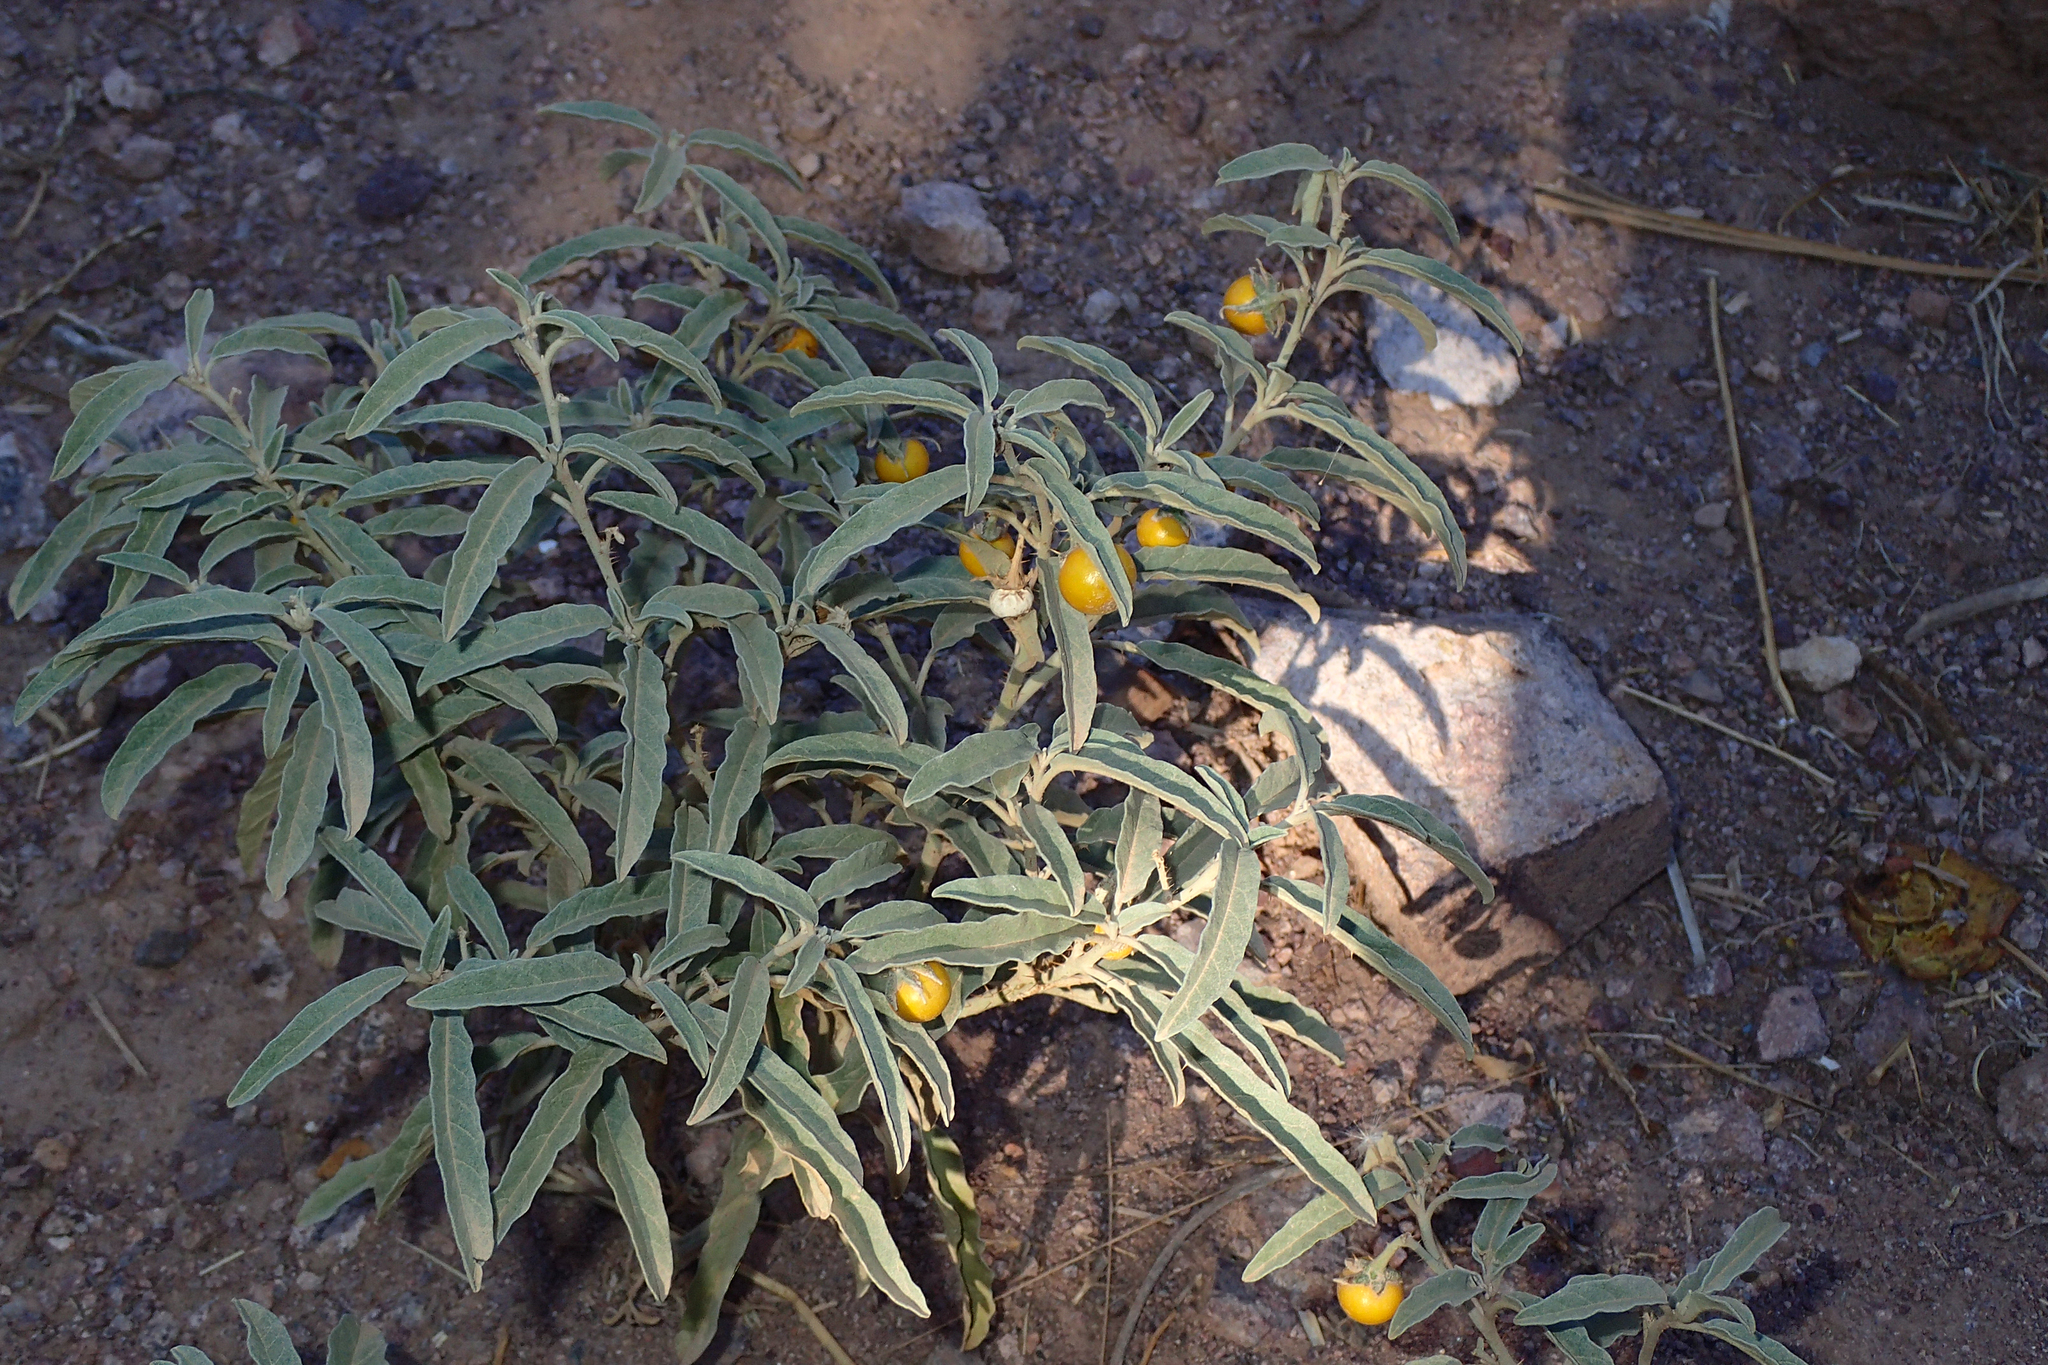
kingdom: Plantae
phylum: Tracheophyta
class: Magnoliopsida
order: Solanales
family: Solanaceae
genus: Solanum
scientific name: Solanum elaeagnifolium
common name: Silverleaf nightshade
